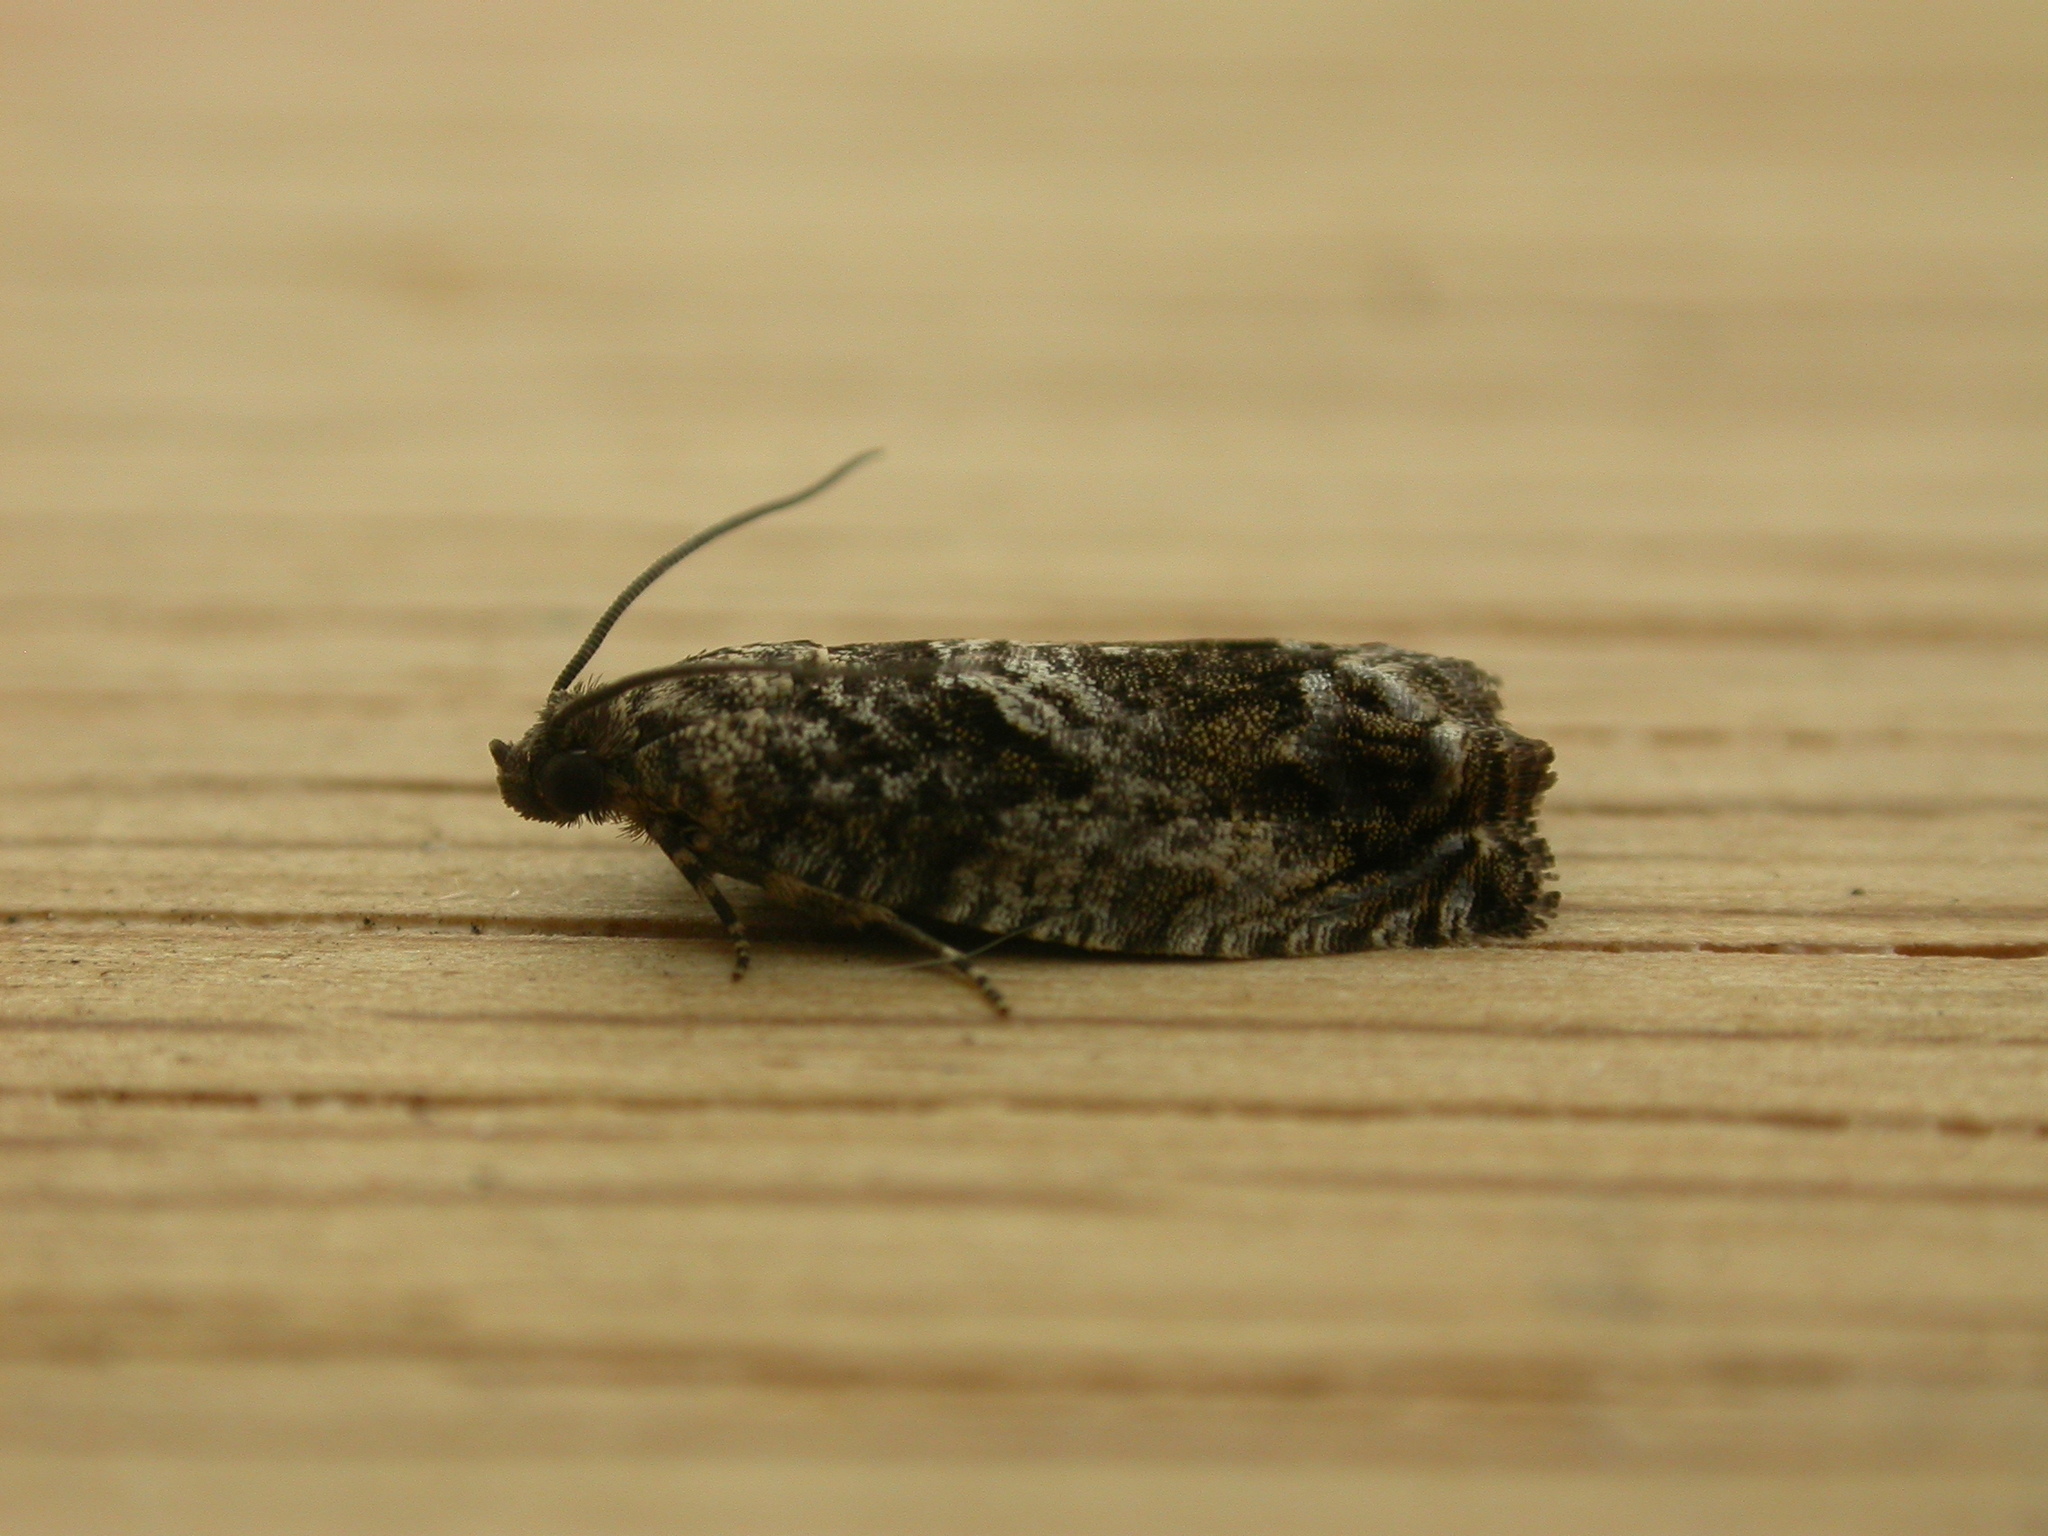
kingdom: Animalia
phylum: Arthropoda
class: Insecta
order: Lepidoptera
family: Tortricidae
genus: Epinotia
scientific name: Epinotia nisella
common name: Grey poplar bell
